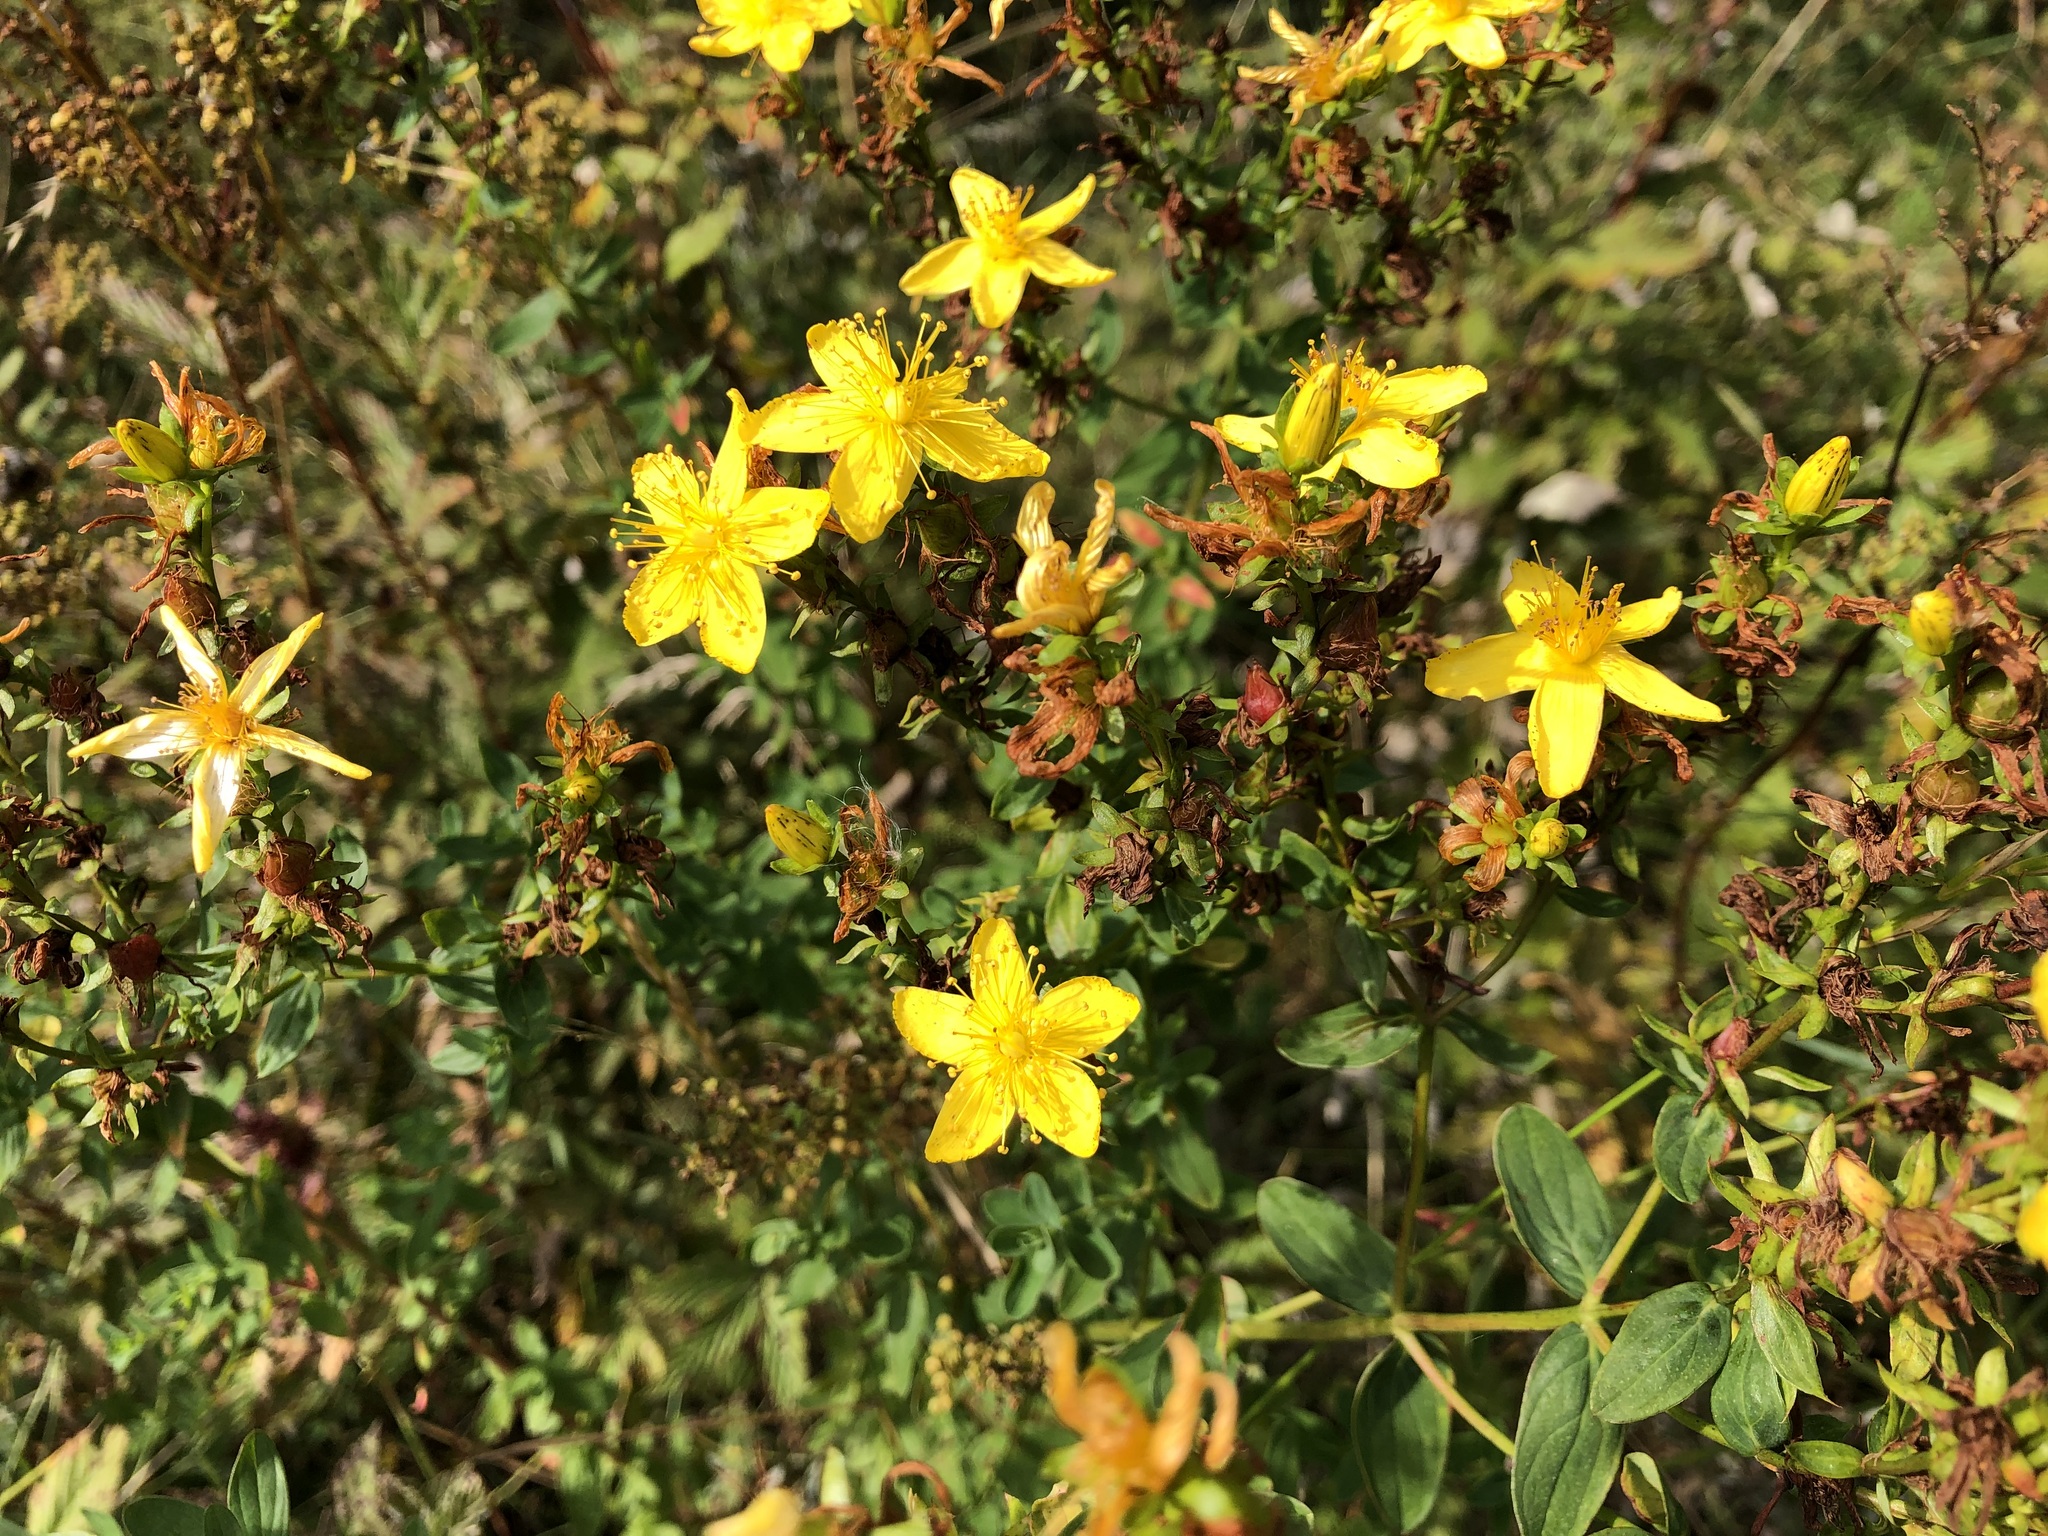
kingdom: Plantae
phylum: Tracheophyta
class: Magnoliopsida
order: Malpighiales
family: Hypericaceae
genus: Hypericum
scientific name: Hypericum perforatum
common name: Common st. johnswort
